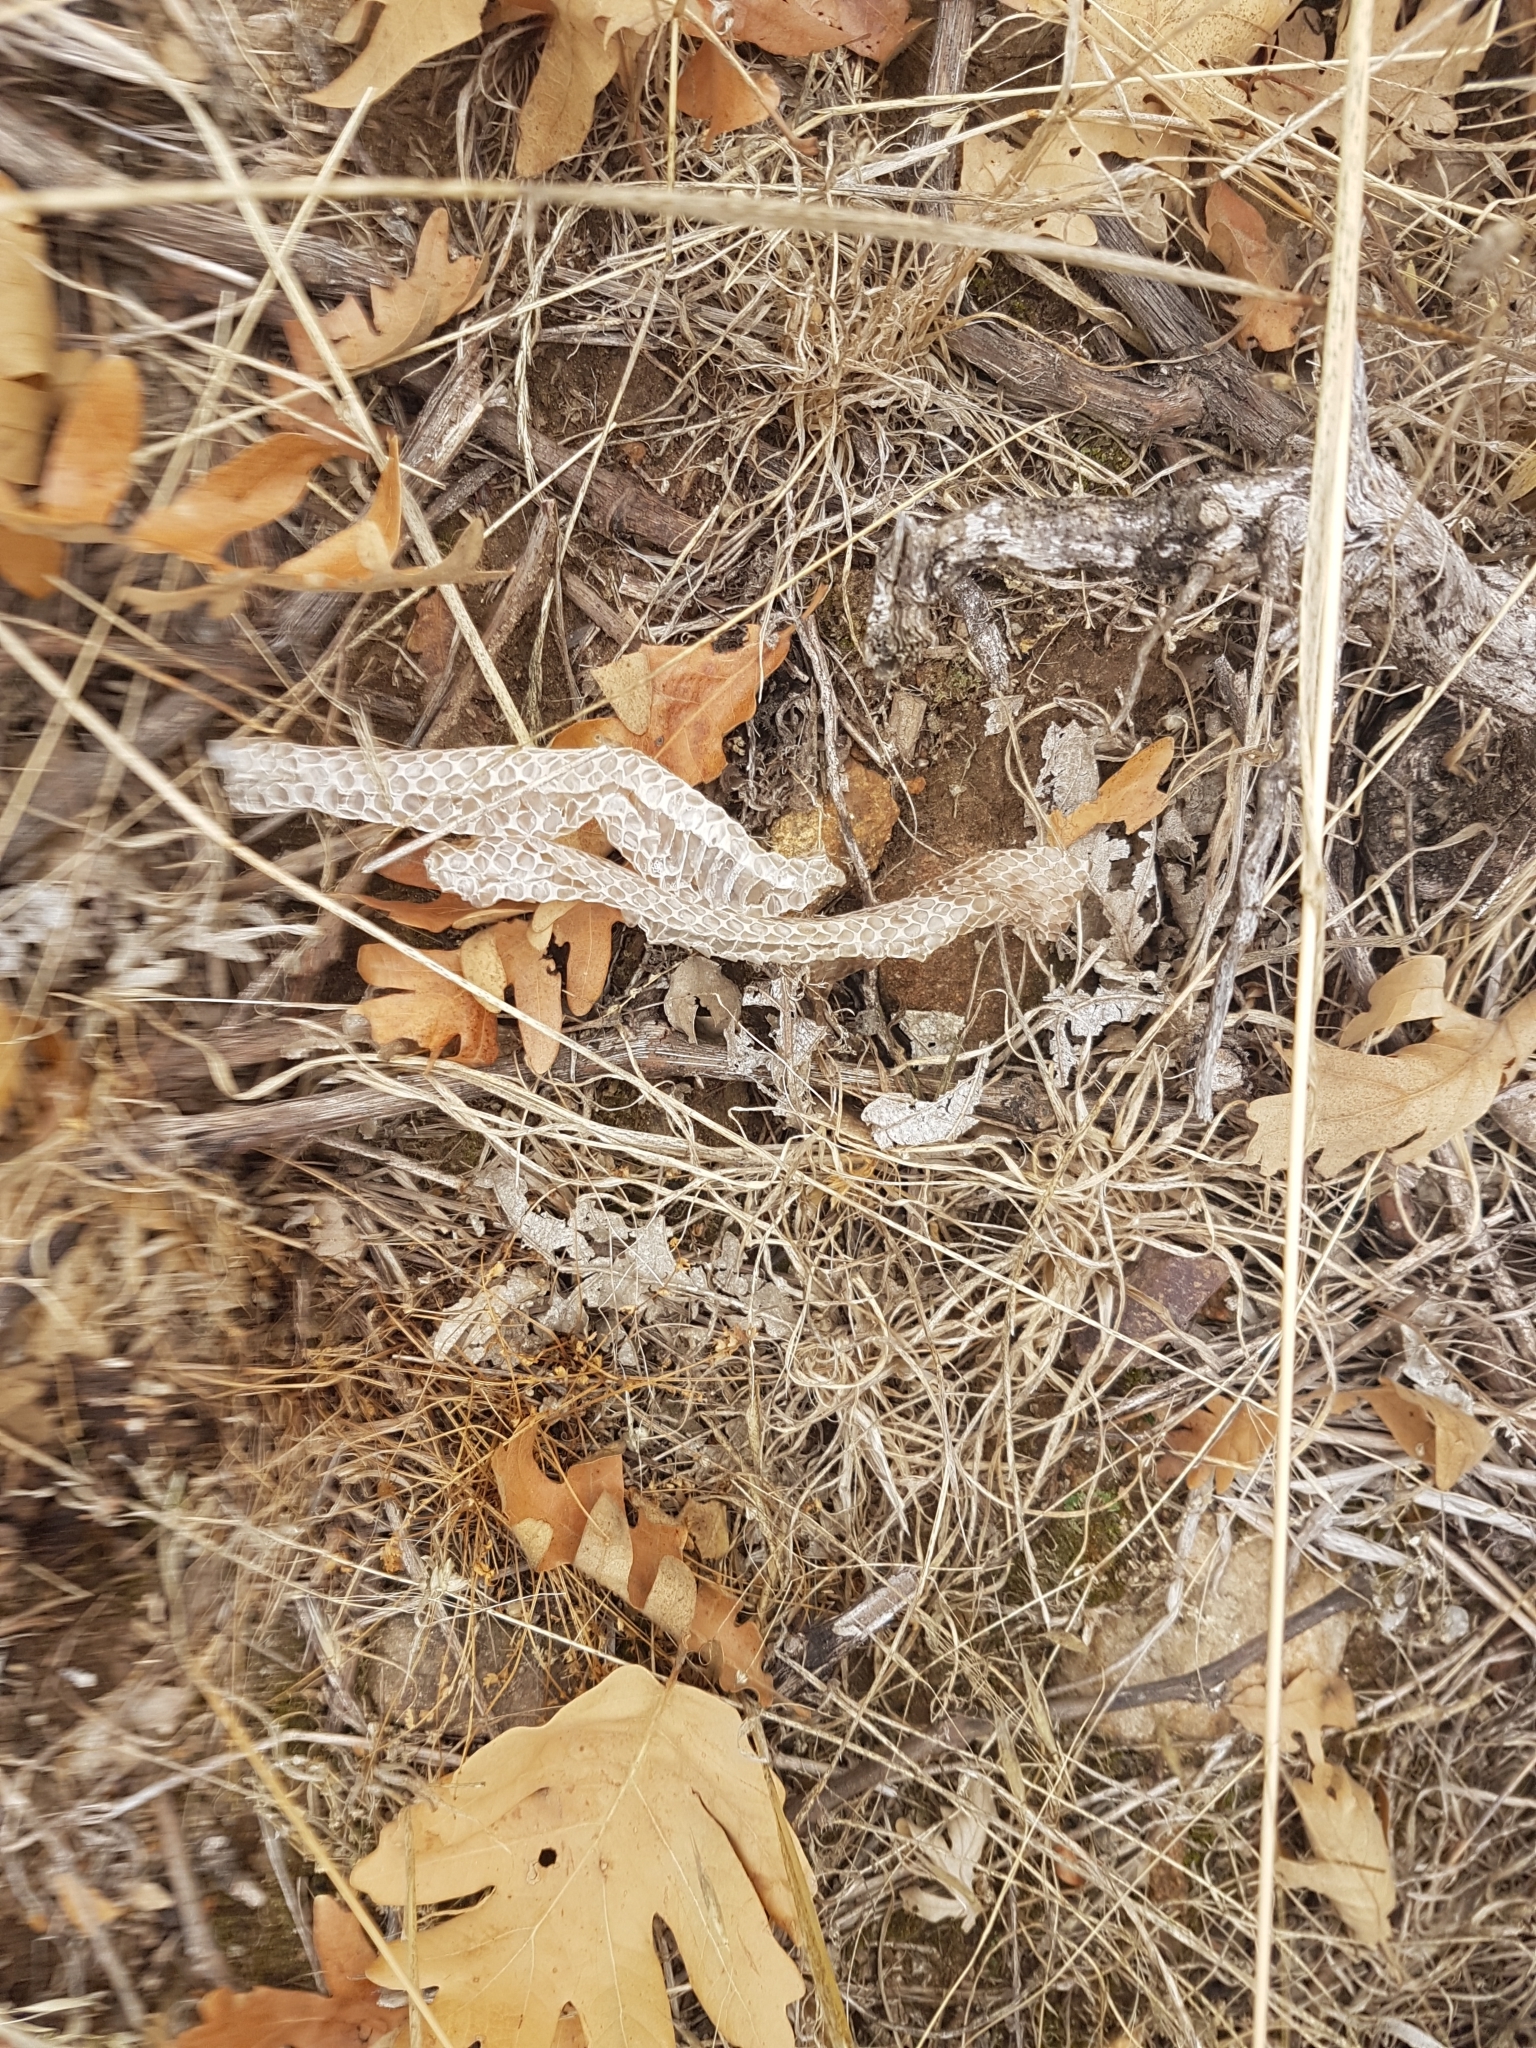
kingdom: Animalia
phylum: Chordata
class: Squamata
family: Psammophiidae
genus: Malpolon
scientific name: Malpolon monspessulanus
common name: Montpellier snake
